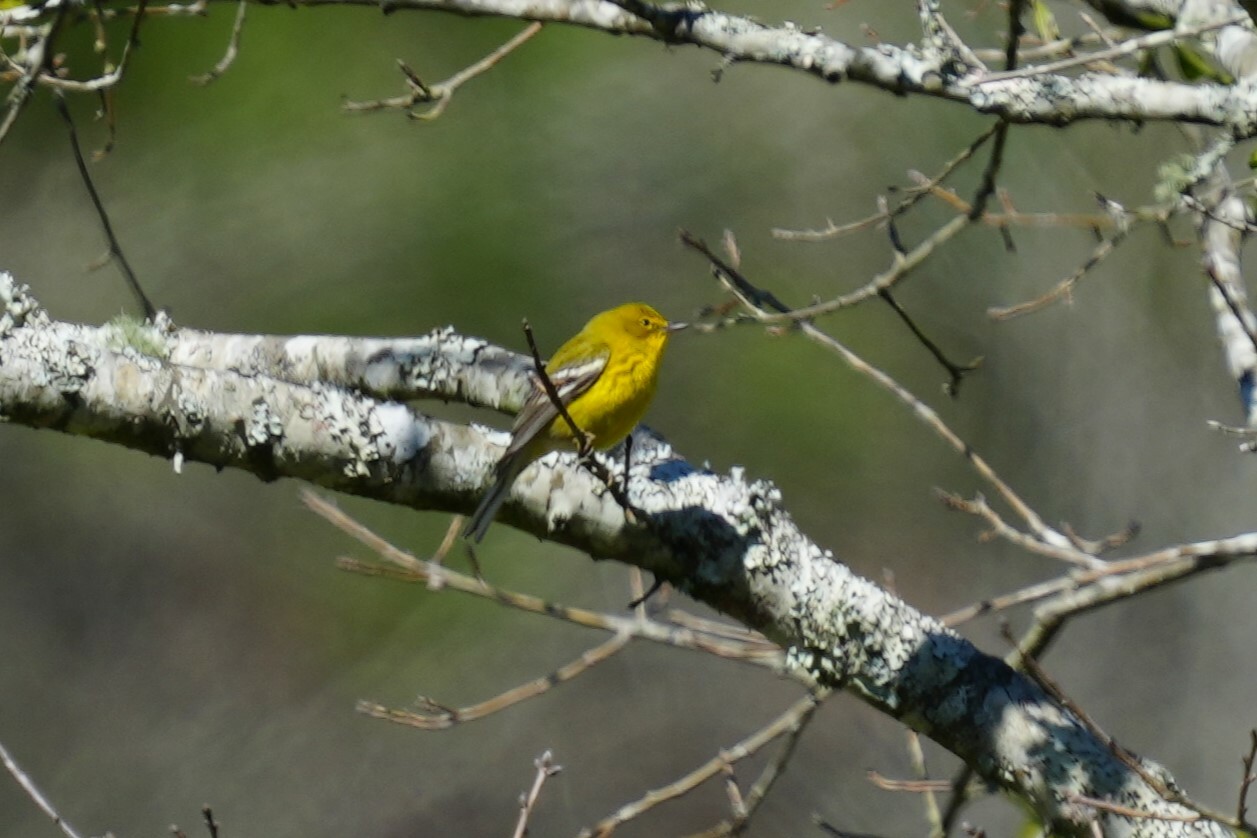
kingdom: Animalia
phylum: Chordata
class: Aves
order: Passeriformes
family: Parulidae
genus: Setophaga
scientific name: Setophaga pinus
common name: Pine warbler
